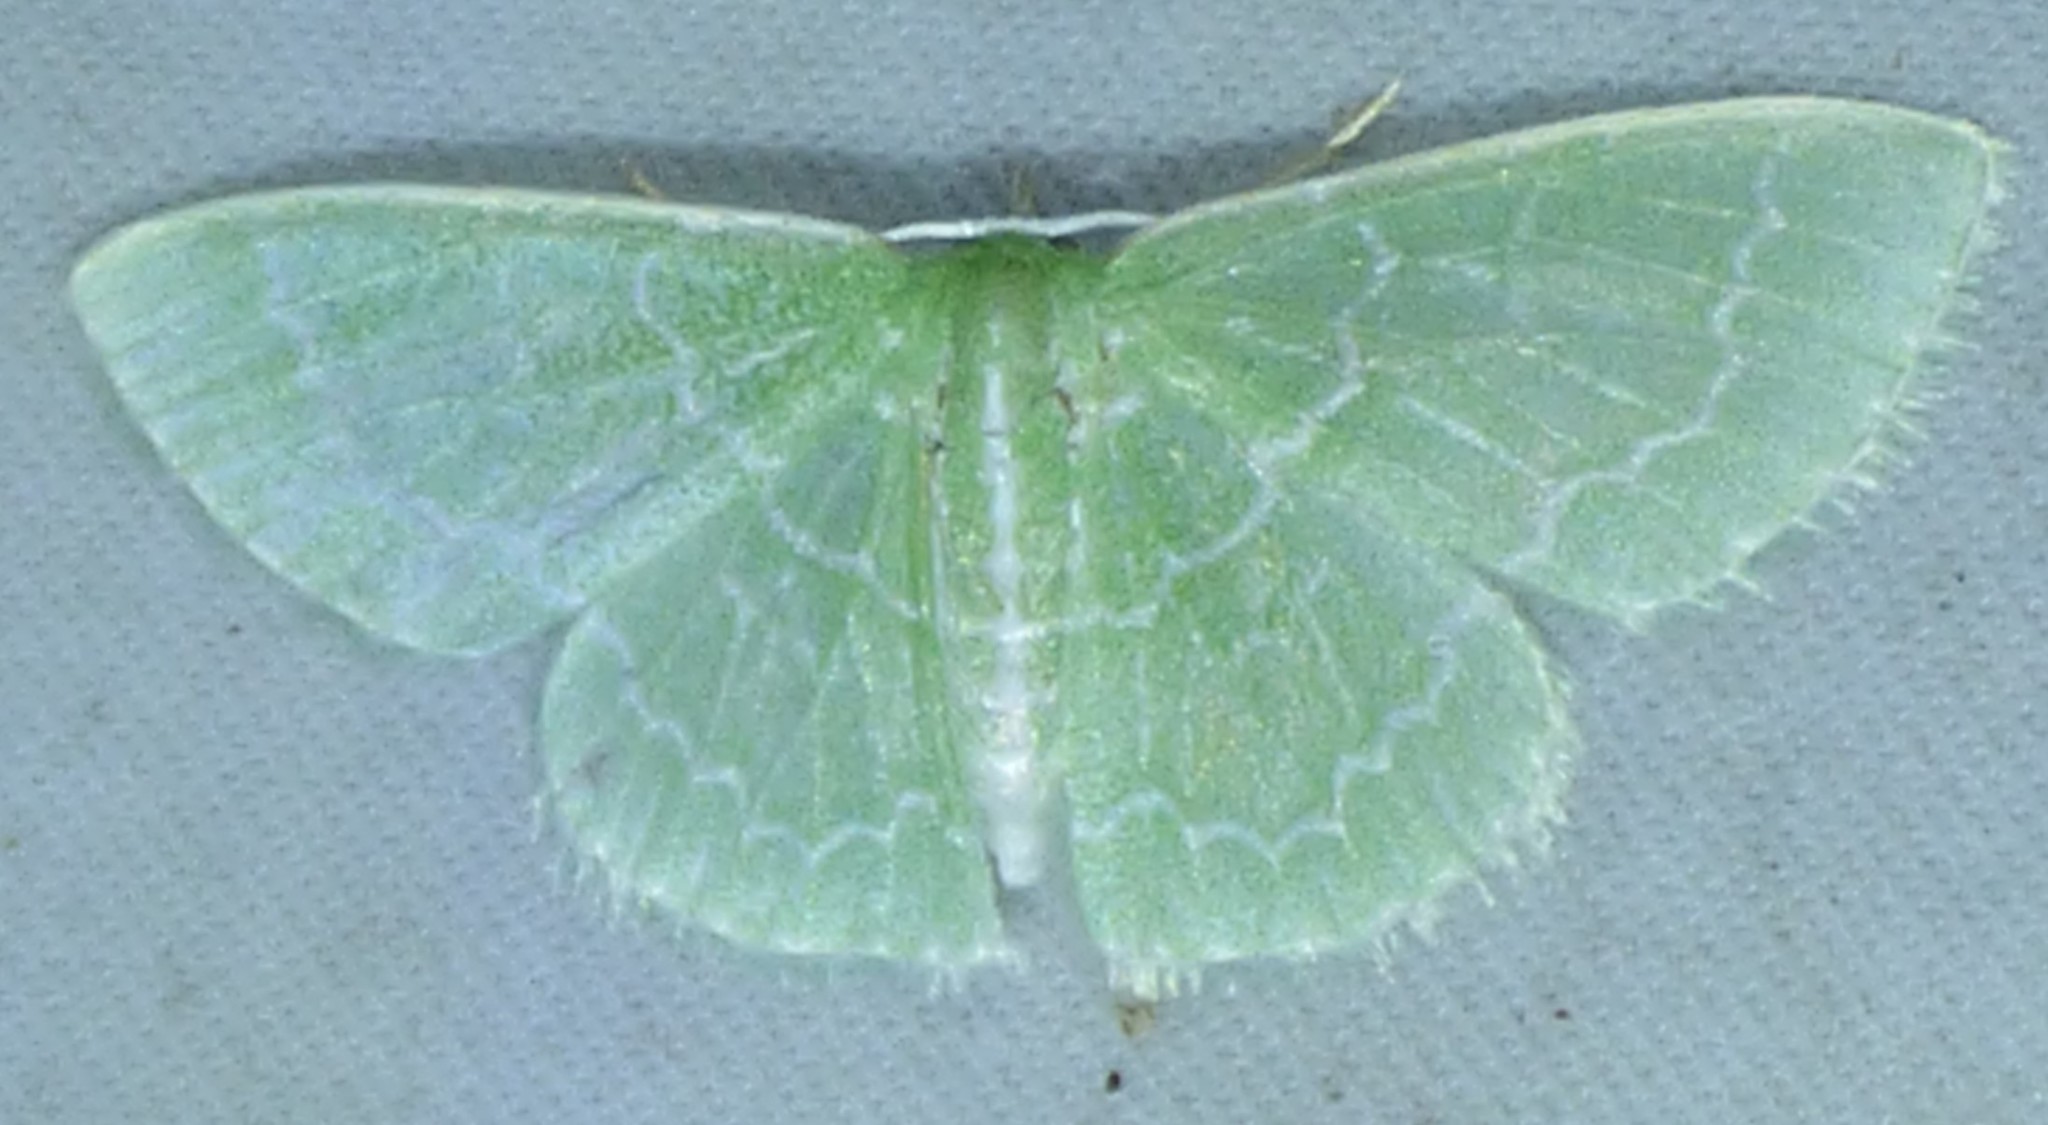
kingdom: Animalia
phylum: Arthropoda
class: Insecta
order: Lepidoptera
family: Geometridae
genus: Synchlora
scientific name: Synchlora frondaria
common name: Southern emerald
